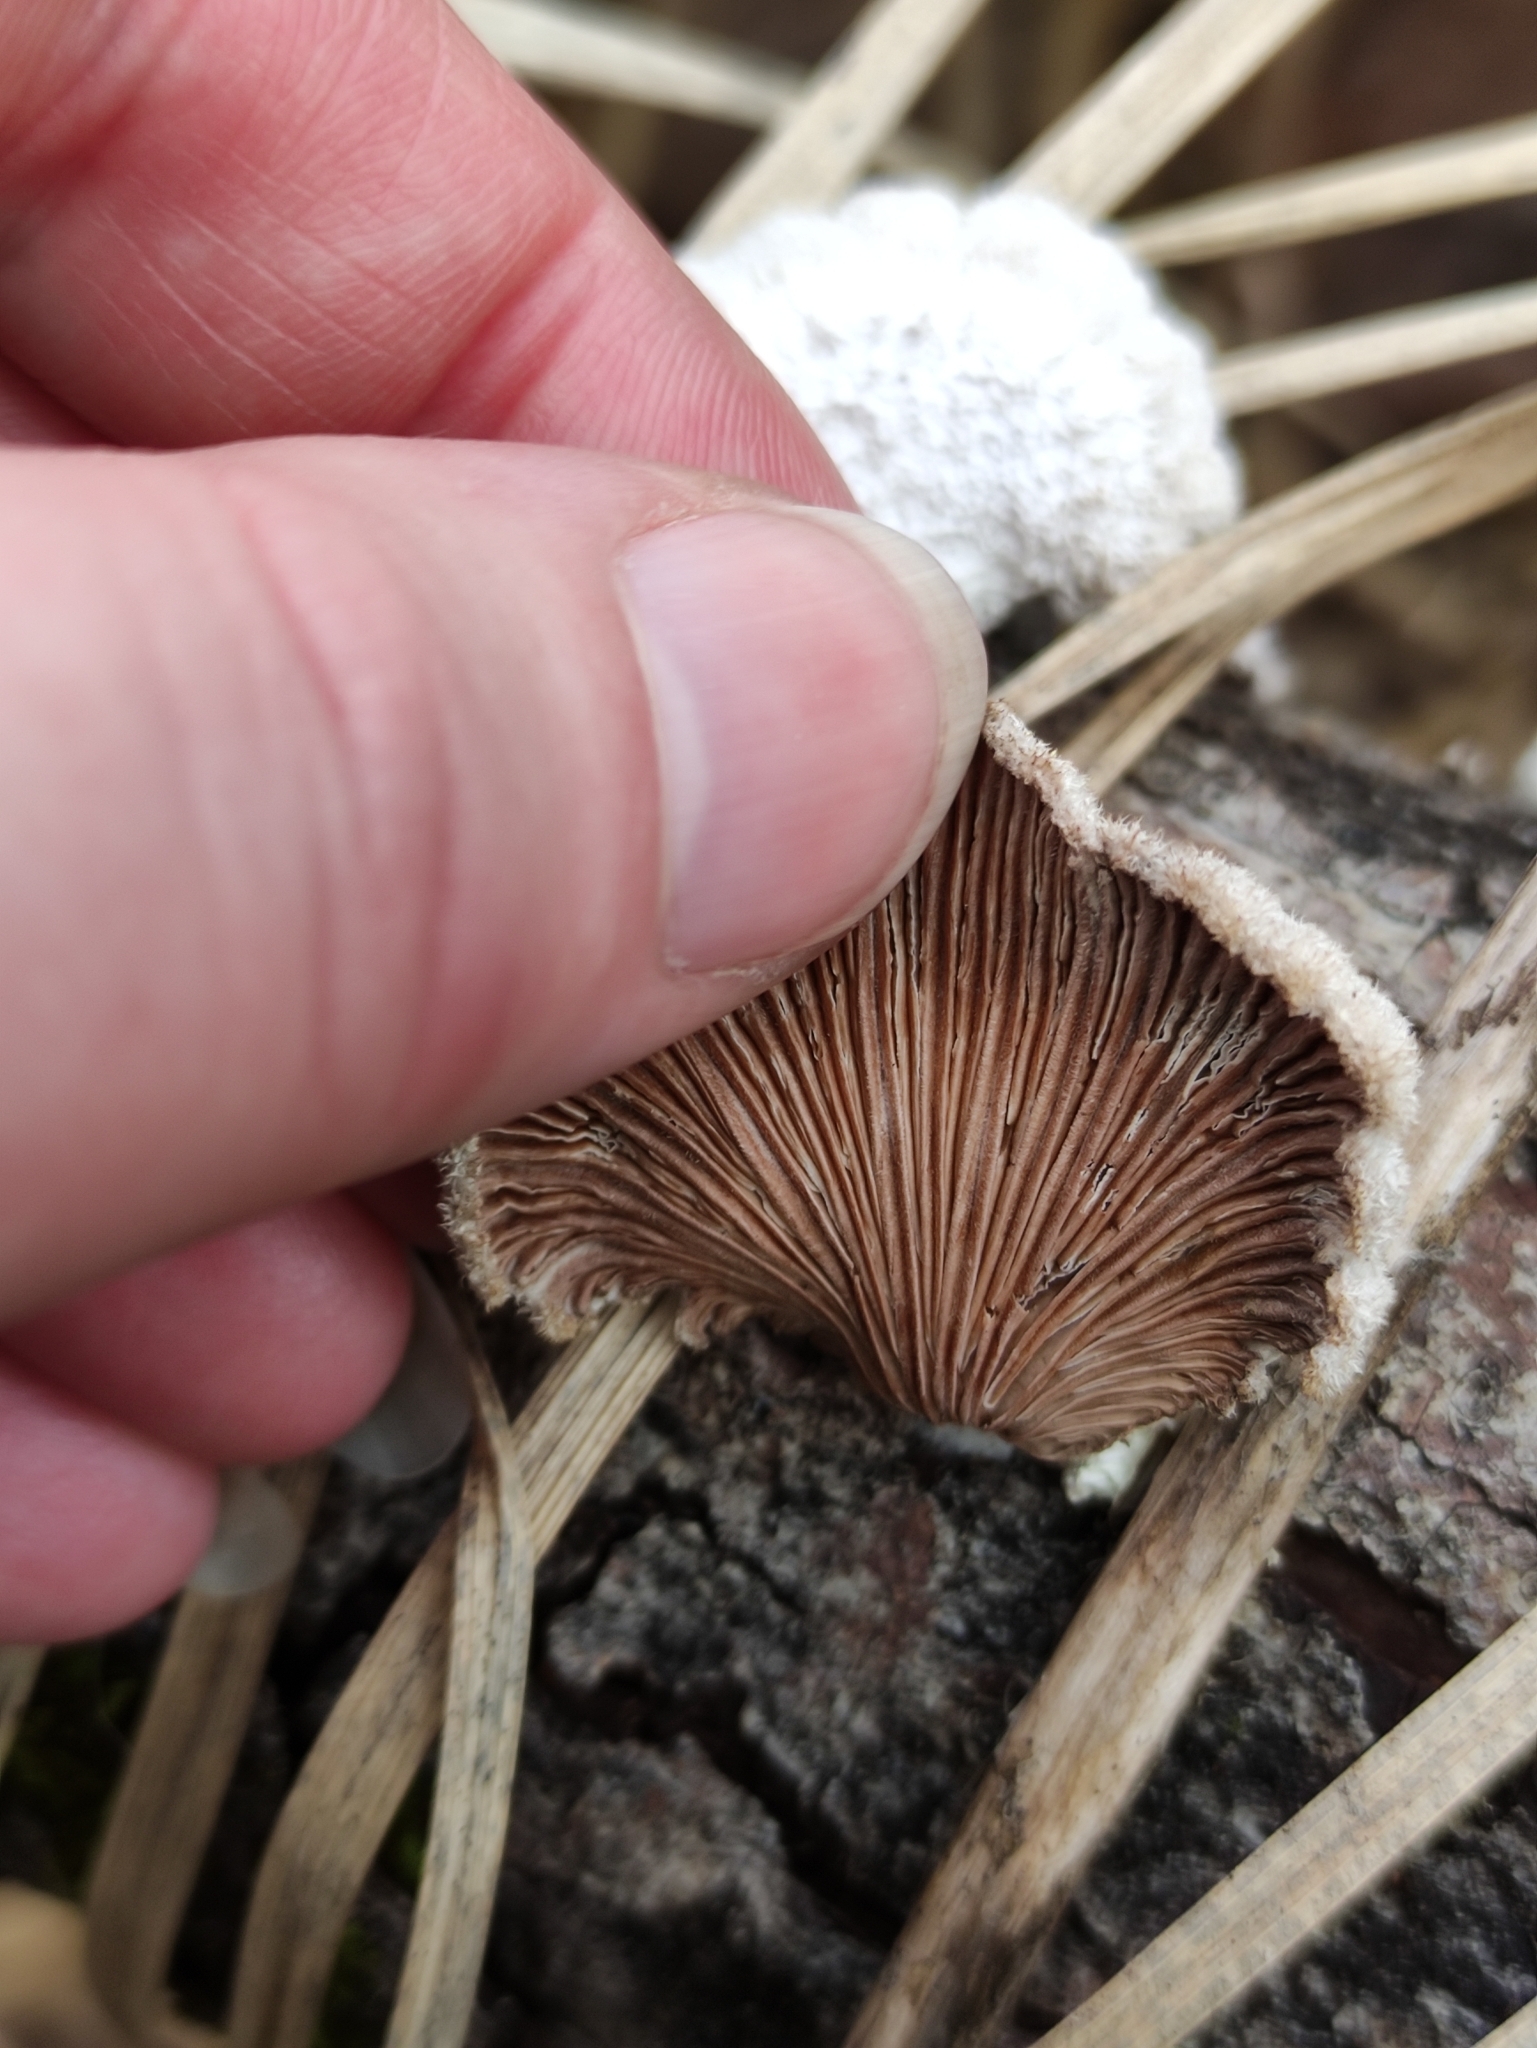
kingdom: Fungi
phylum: Basidiomycota
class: Agaricomycetes
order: Agaricales
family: Schizophyllaceae
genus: Schizophyllum
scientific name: Schizophyllum commune
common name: Common porecrust
